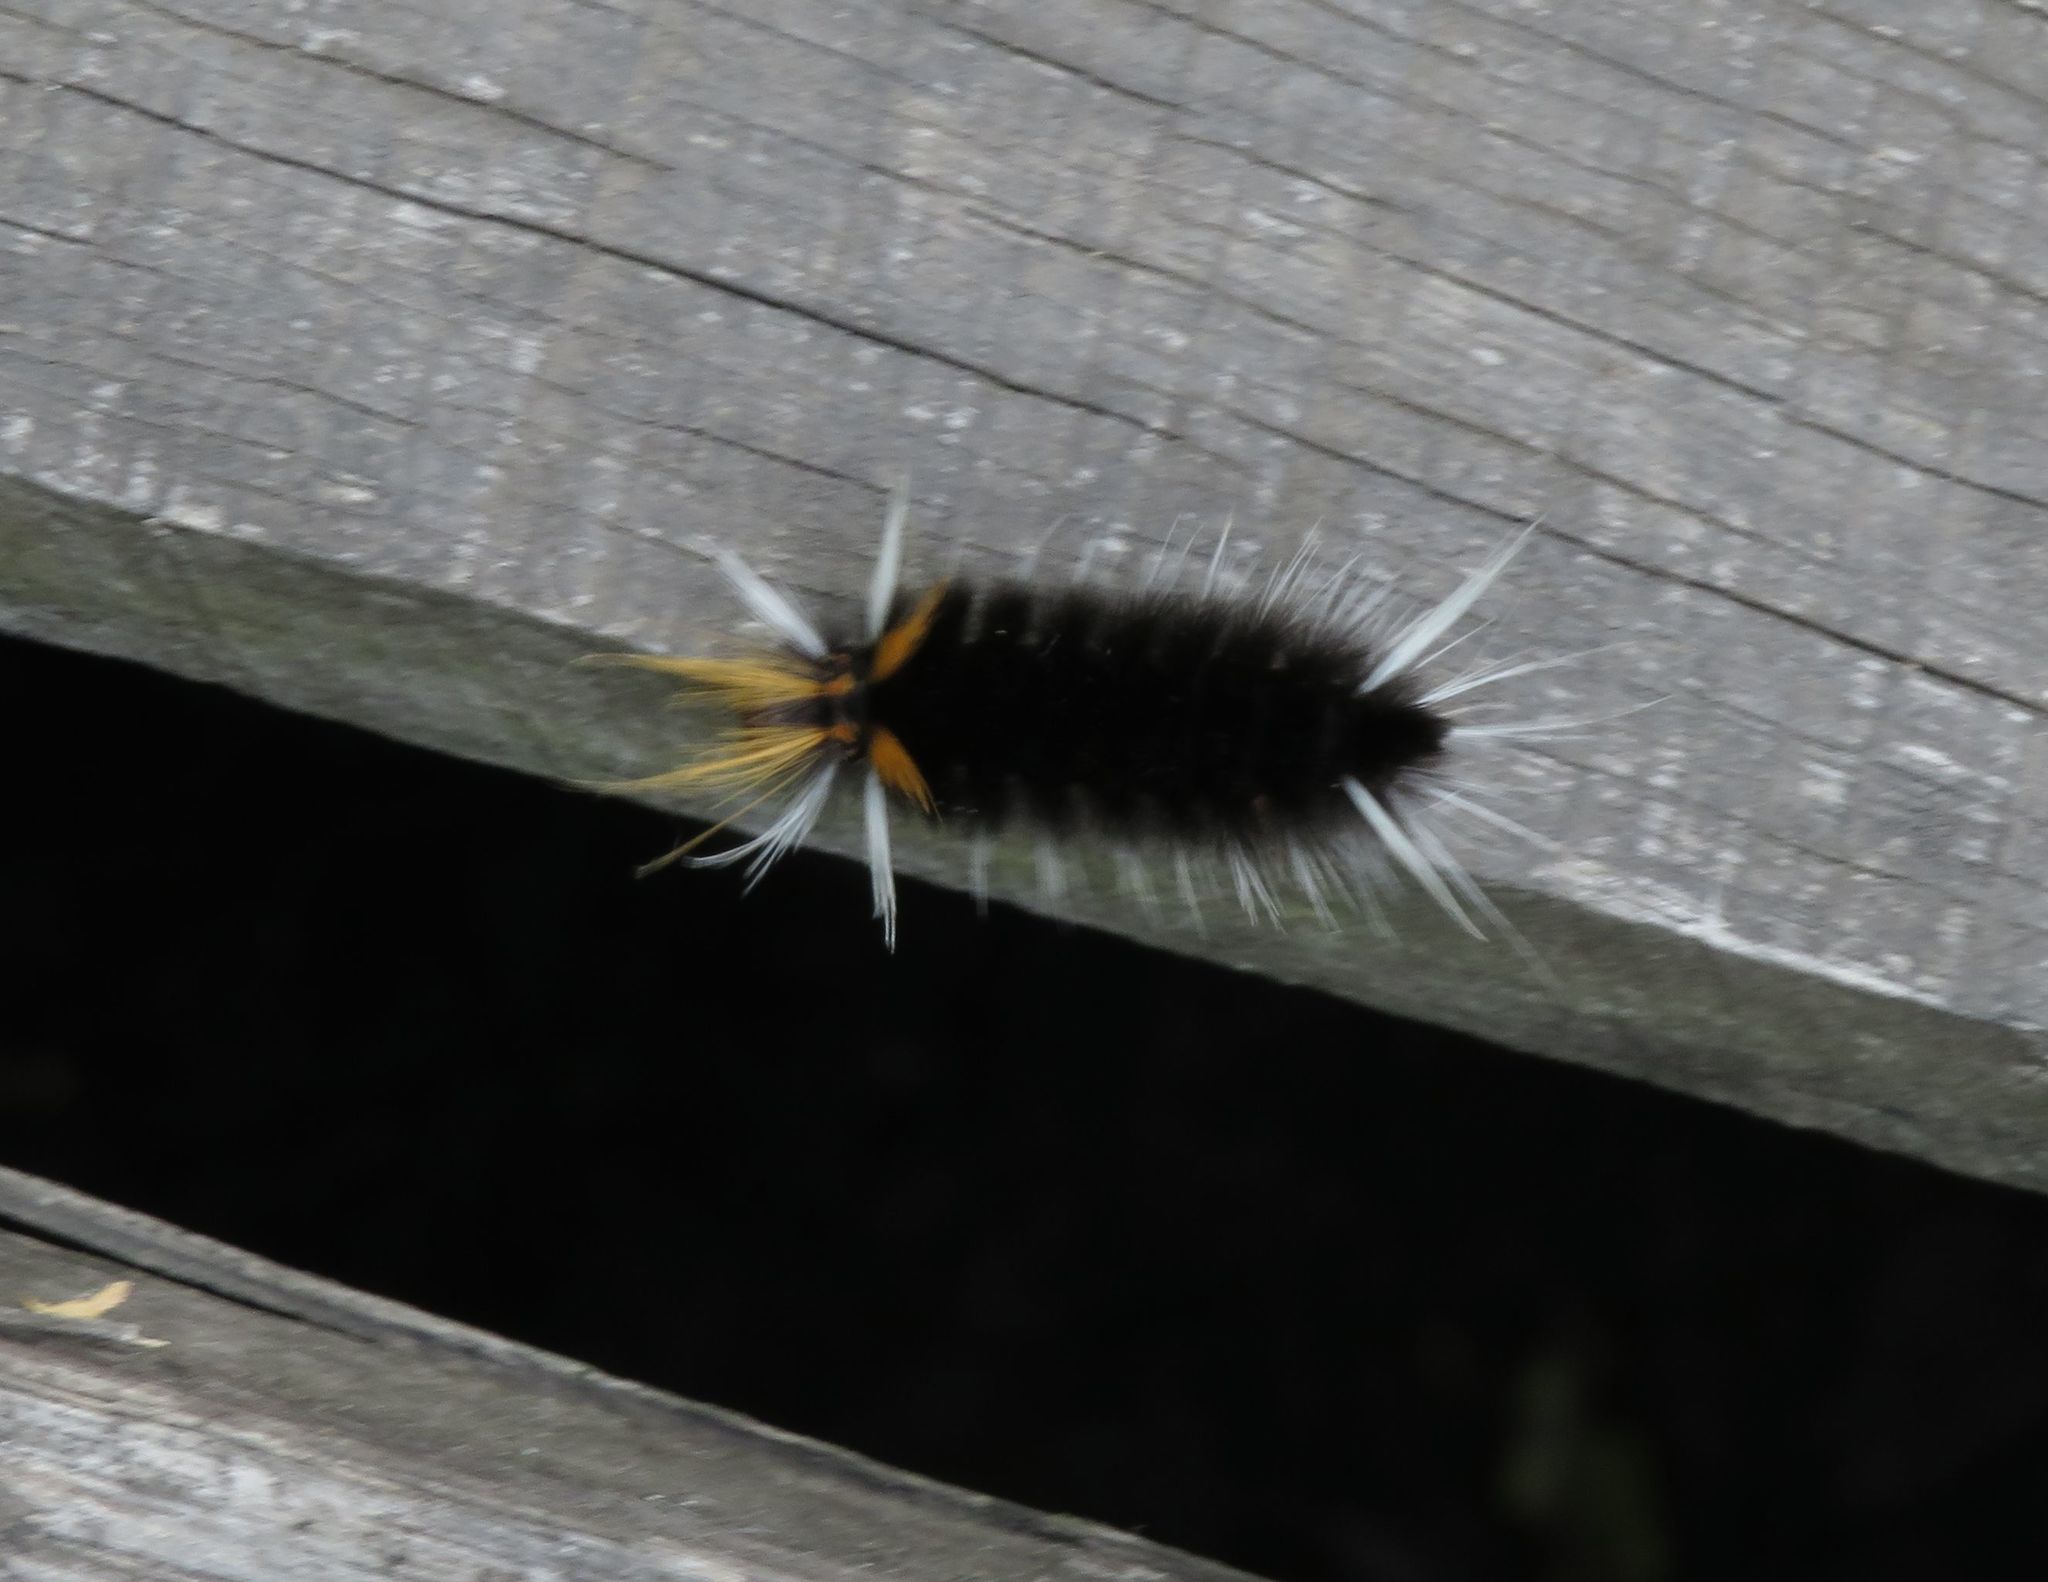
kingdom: Animalia
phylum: Arthropoda
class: Insecta
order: Lepidoptera
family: Erebidae
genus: Halysidota
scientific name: Halysidota ruscheweyhi
